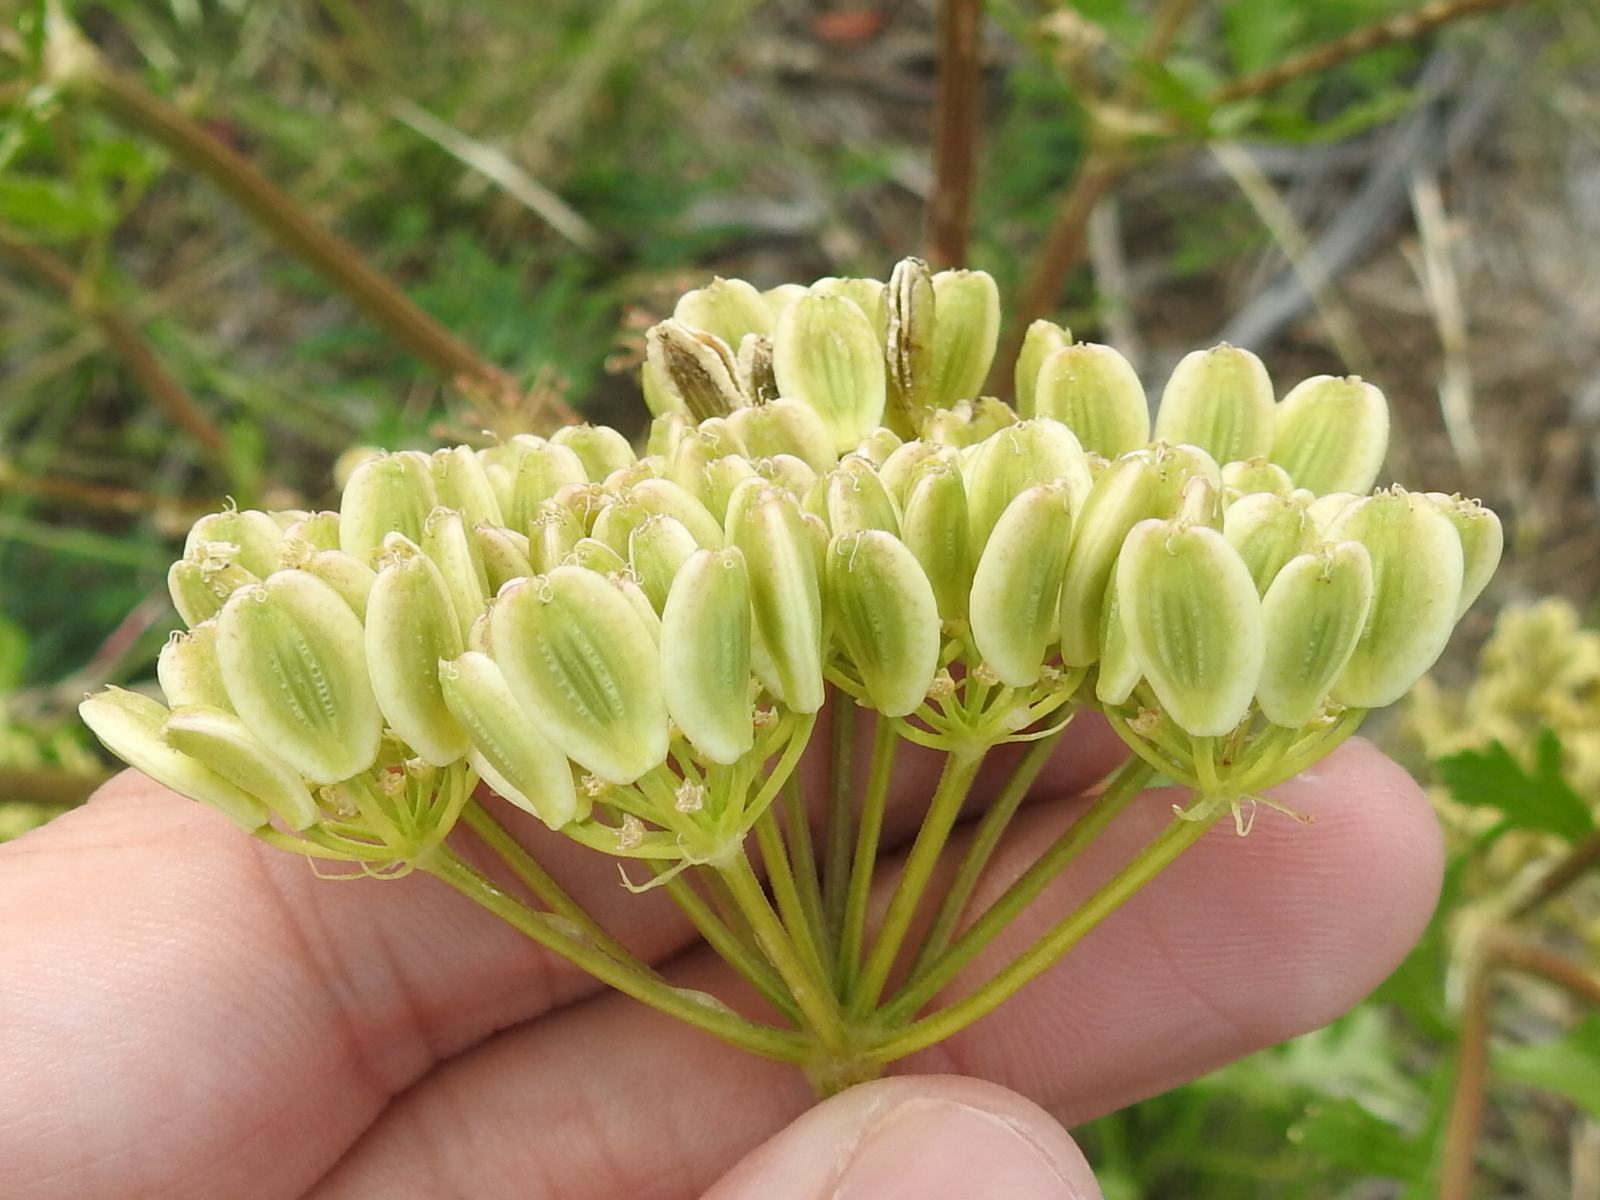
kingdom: Plantae
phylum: Tracheophyta
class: Magnoliopsida
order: Apiales
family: Apiaceae
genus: Polytaenia
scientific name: Polytaenia texana
